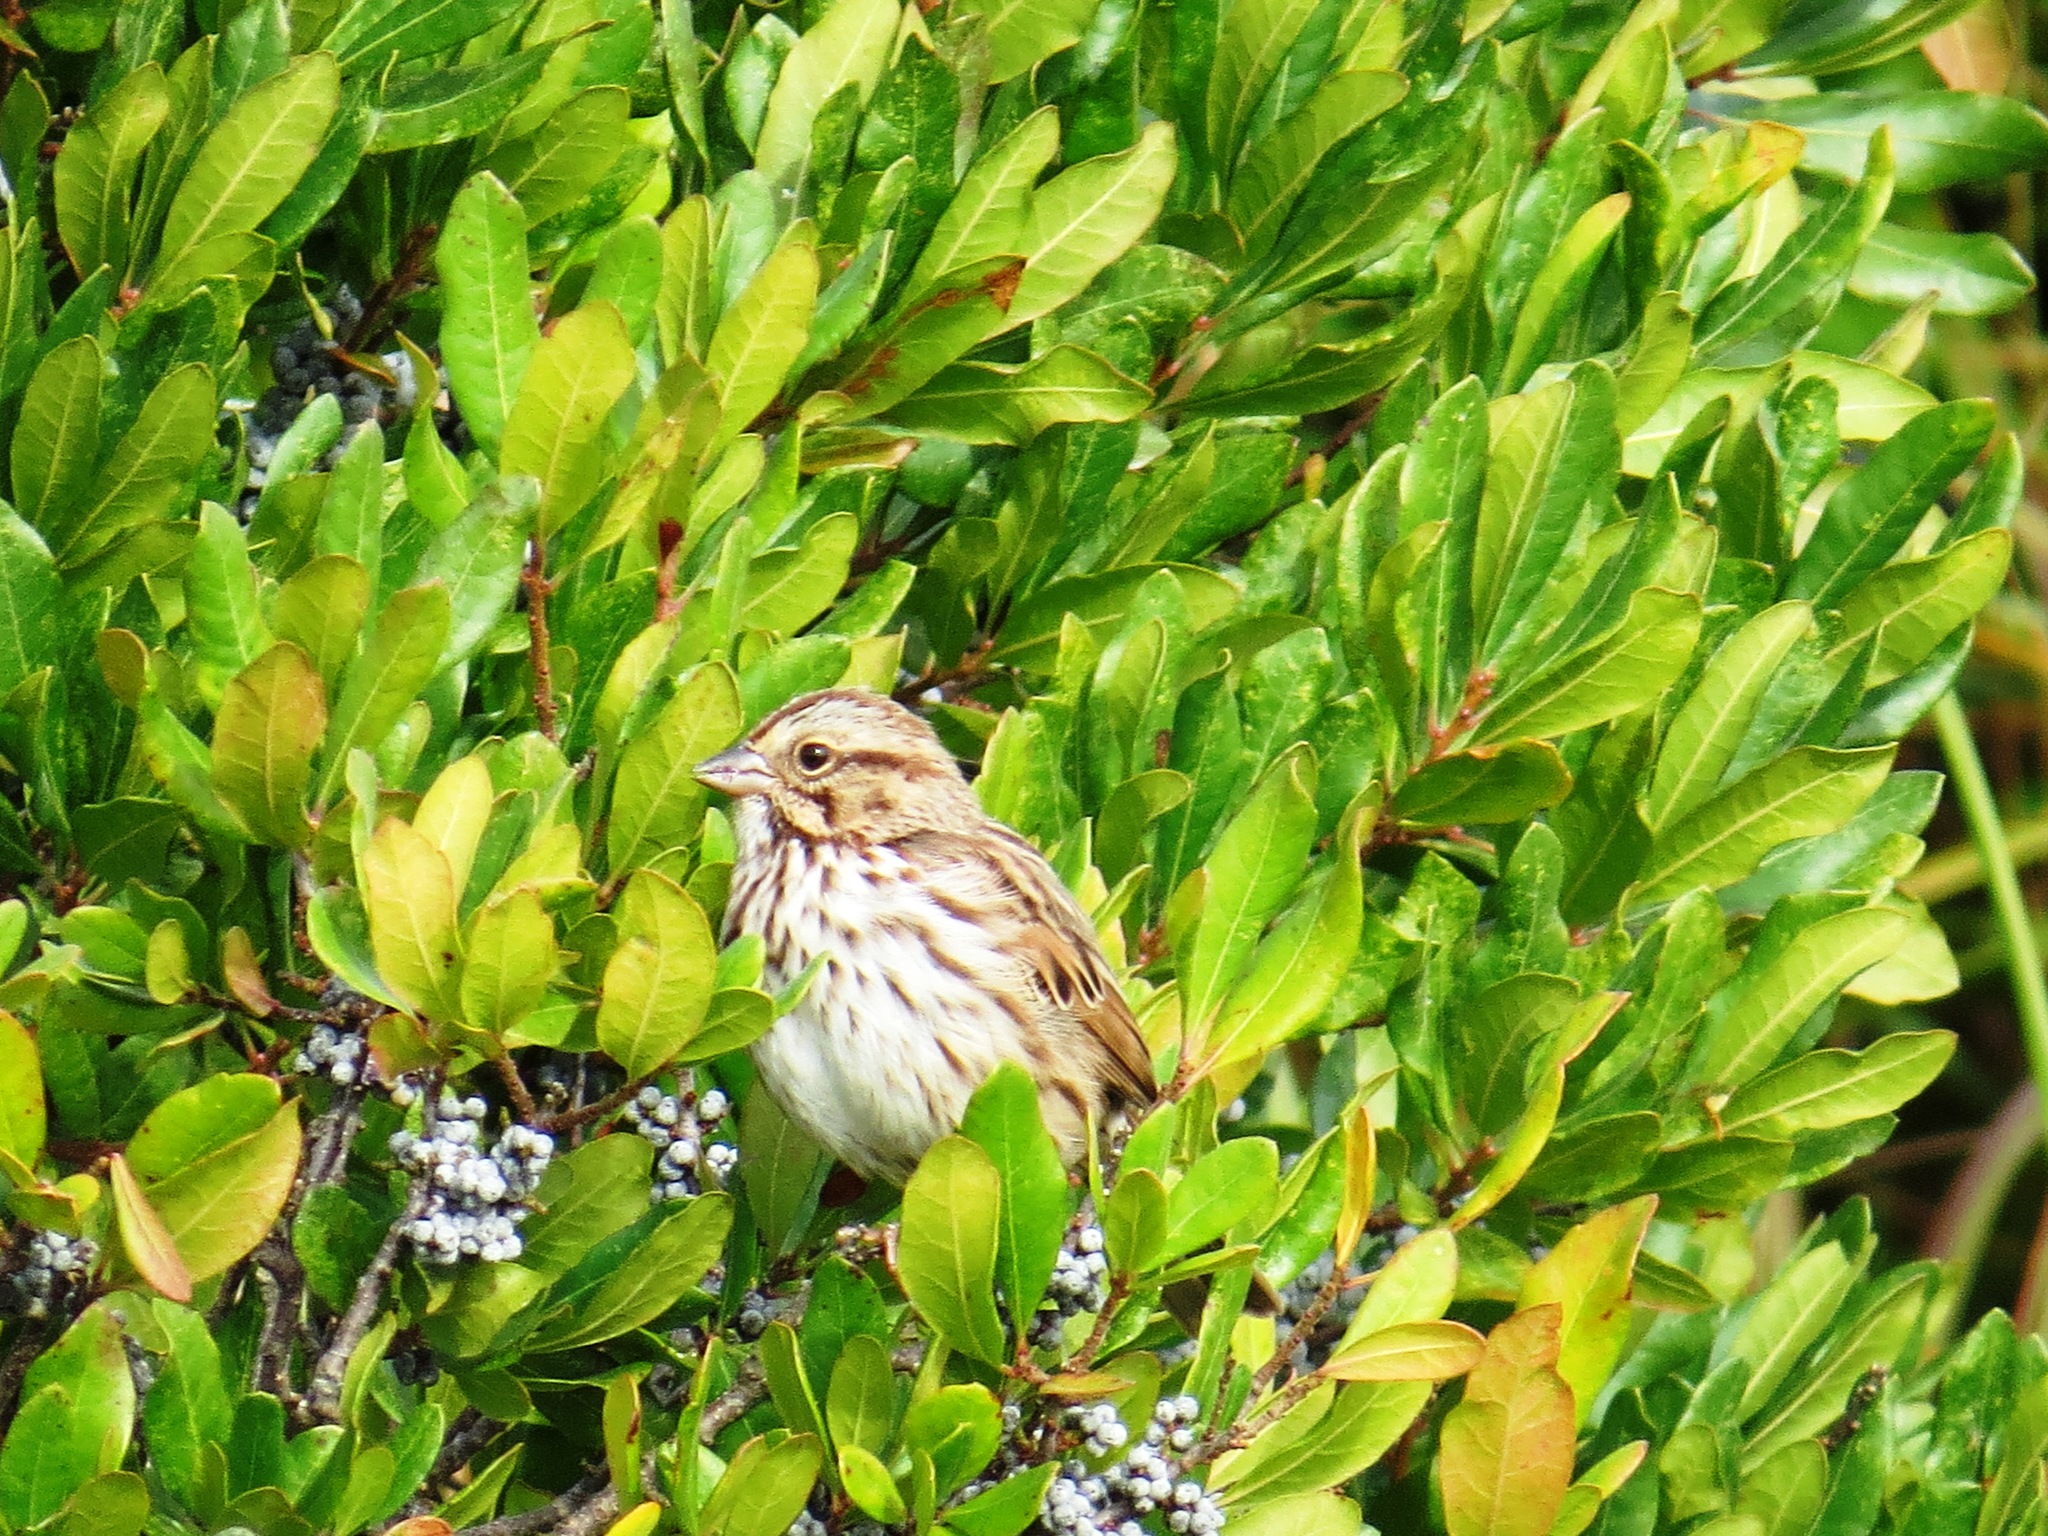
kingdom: Animalia
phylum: Chordata
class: Aves
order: Passeriformes
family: Passerellidae
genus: Melospiza
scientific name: Melospiza melodia
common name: Song sparrow
